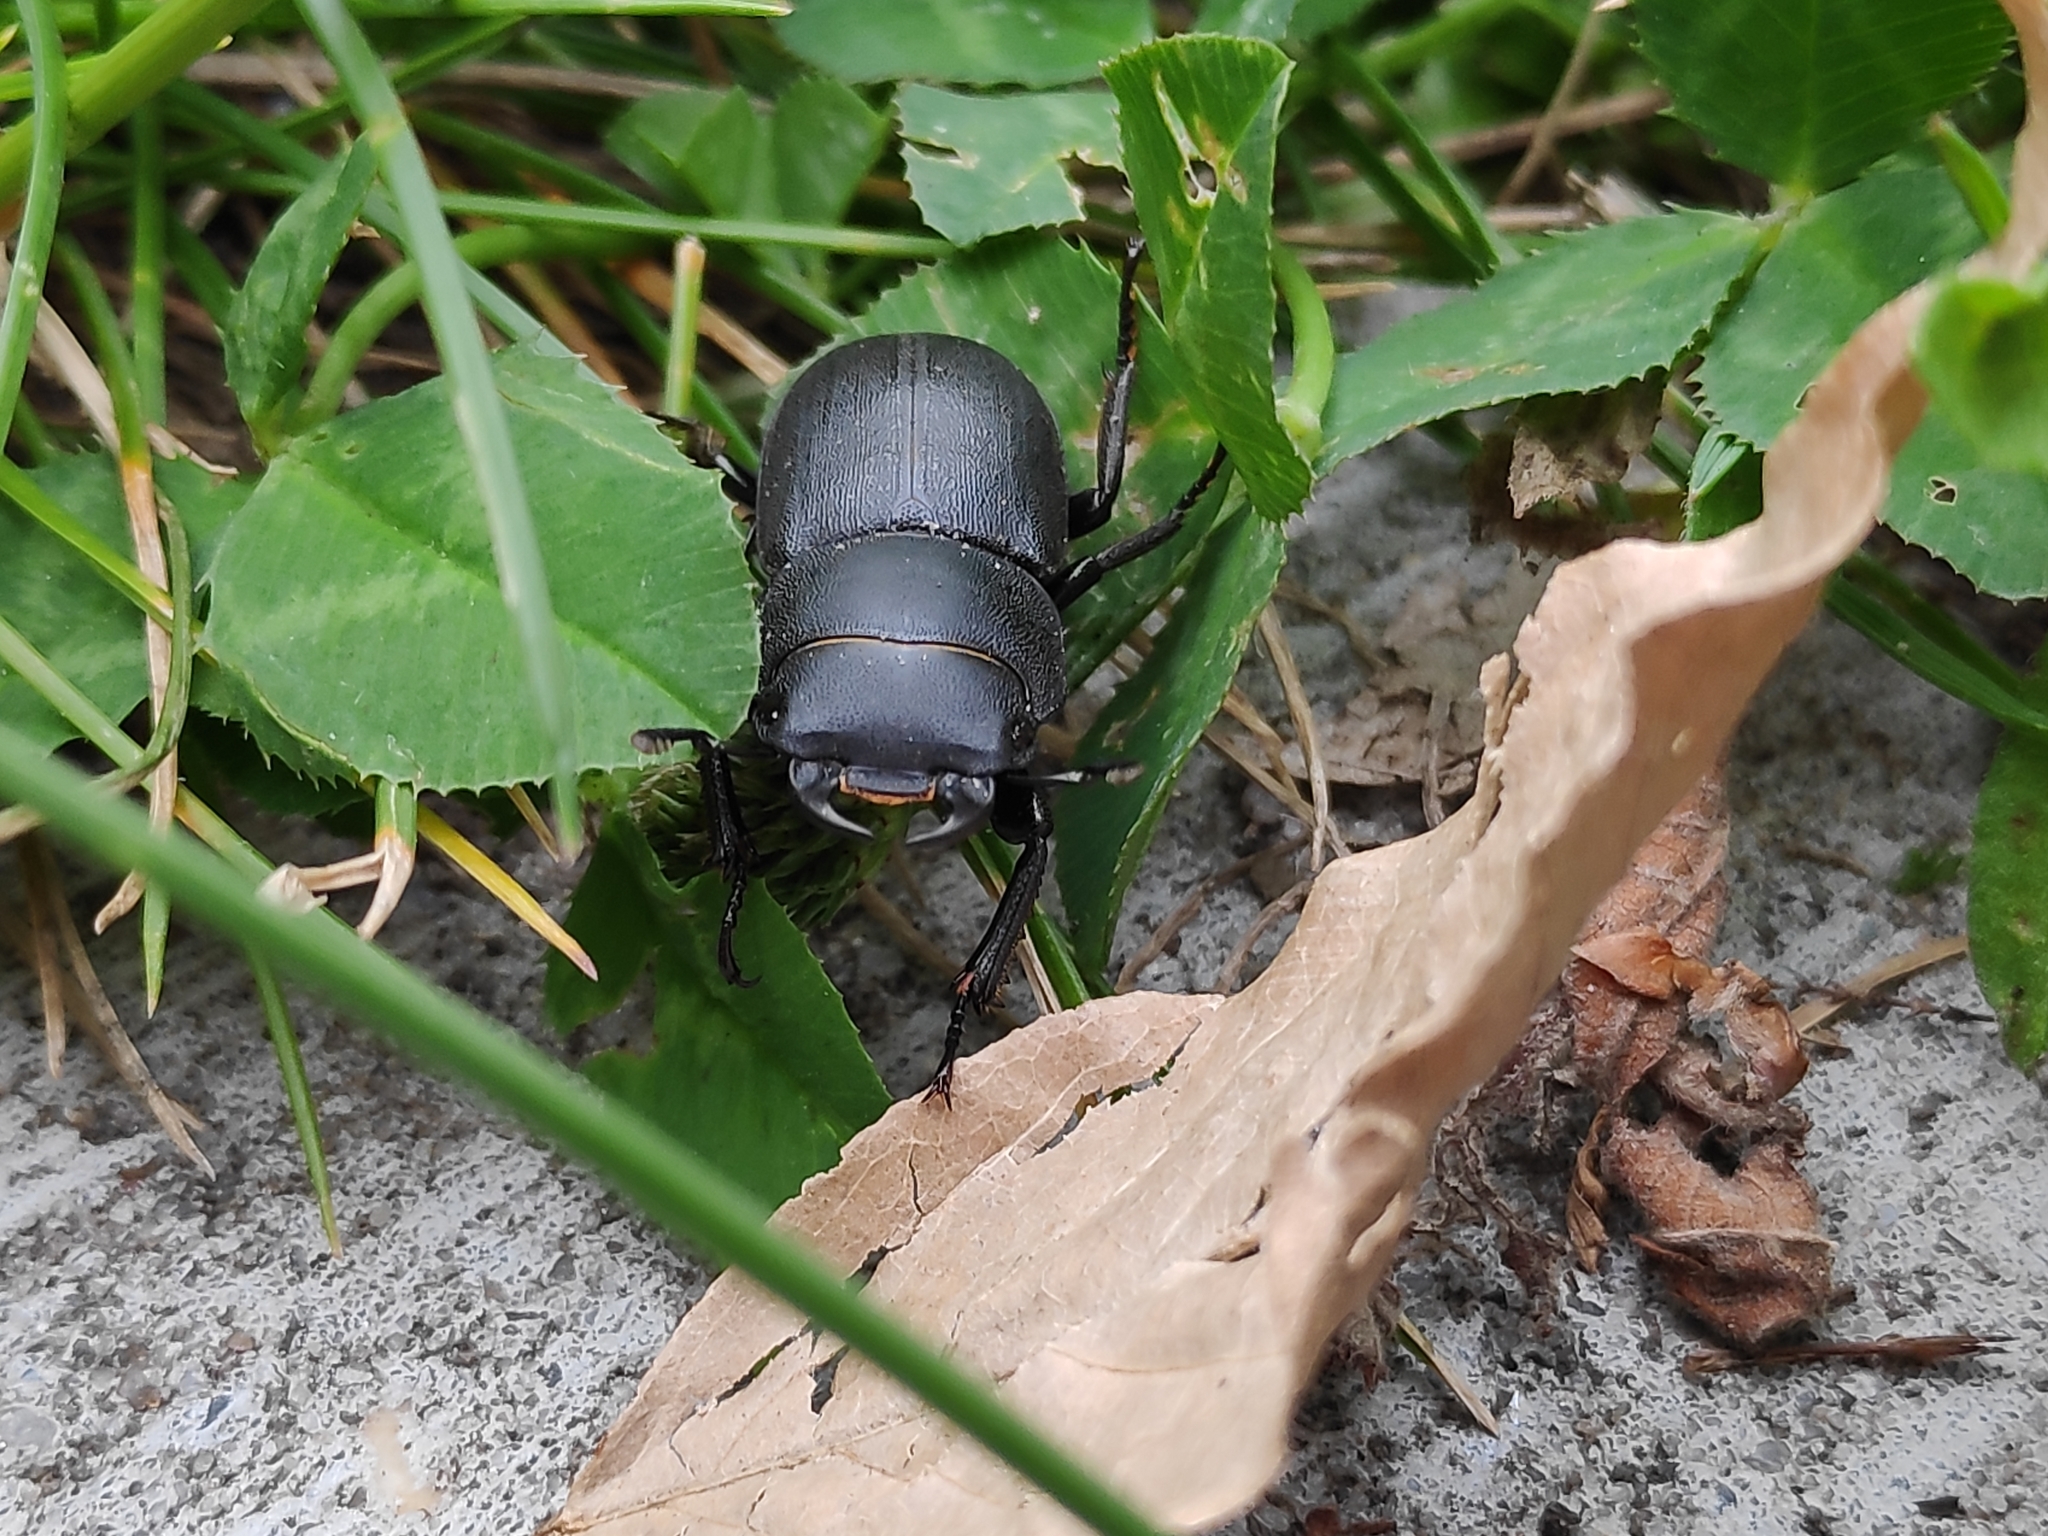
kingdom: Animalia
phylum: Arthropoda
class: Insecta
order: Coleoptera
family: Lucanidae
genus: Dorcus
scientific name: Dorcus parallelipipedus
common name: Lesser stag beetle
